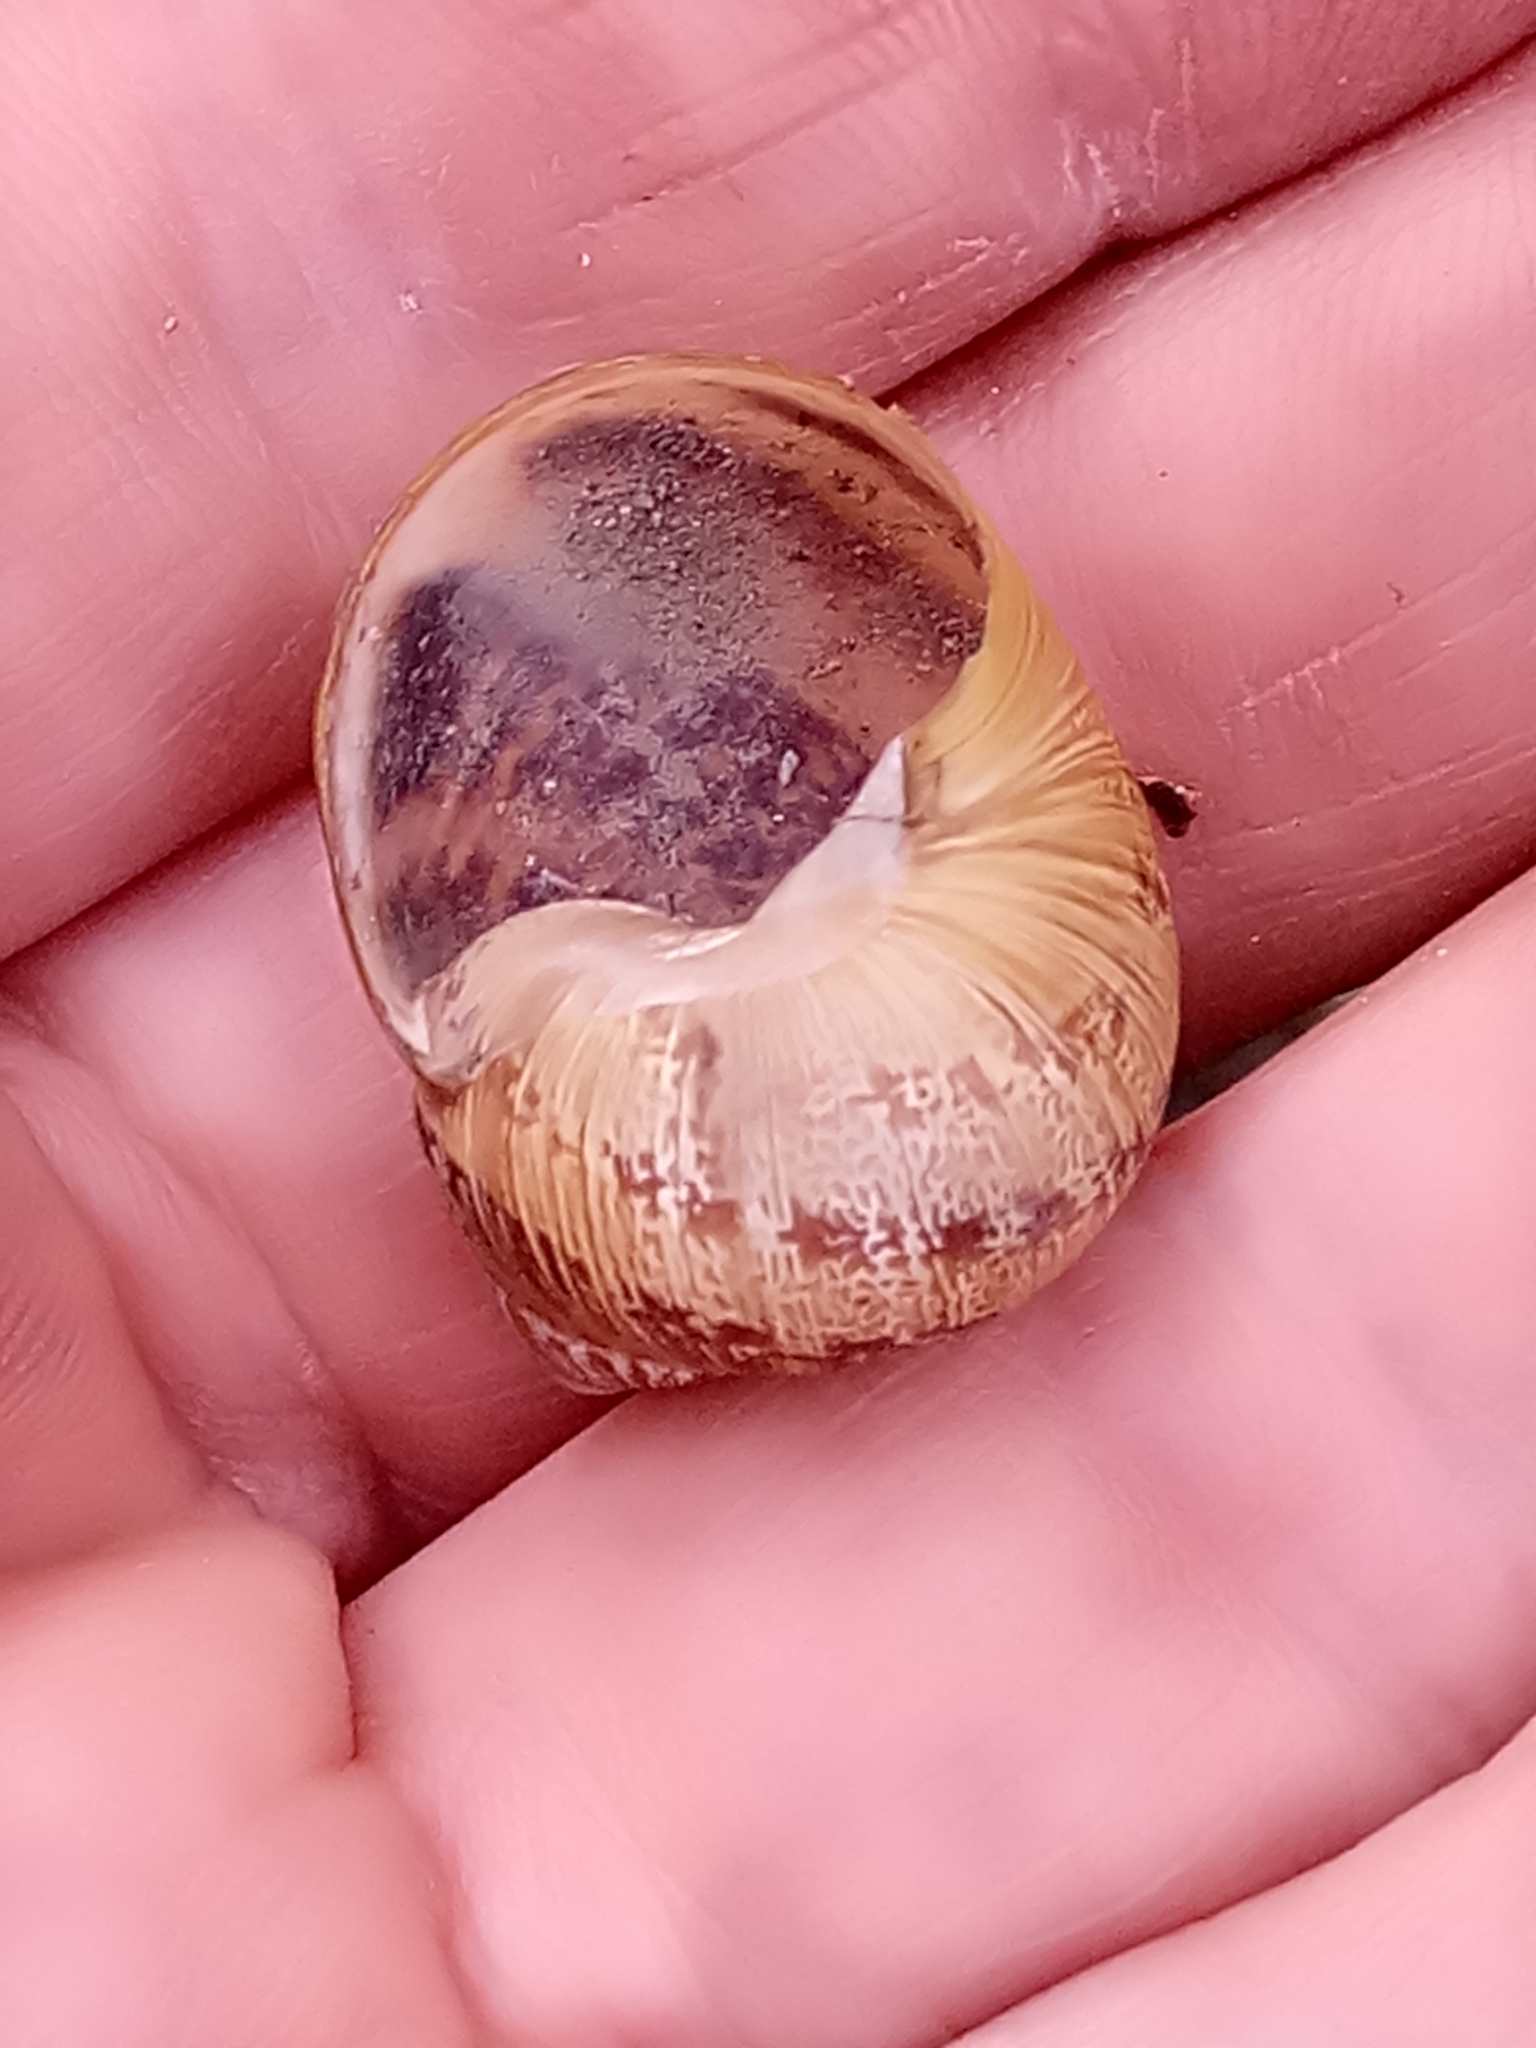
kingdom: Animalia
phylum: Mollusca
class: Gastropoda
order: Stylommatophora
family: Helicidae
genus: Cornu
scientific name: Cornu aspersum
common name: Brown garden snail
